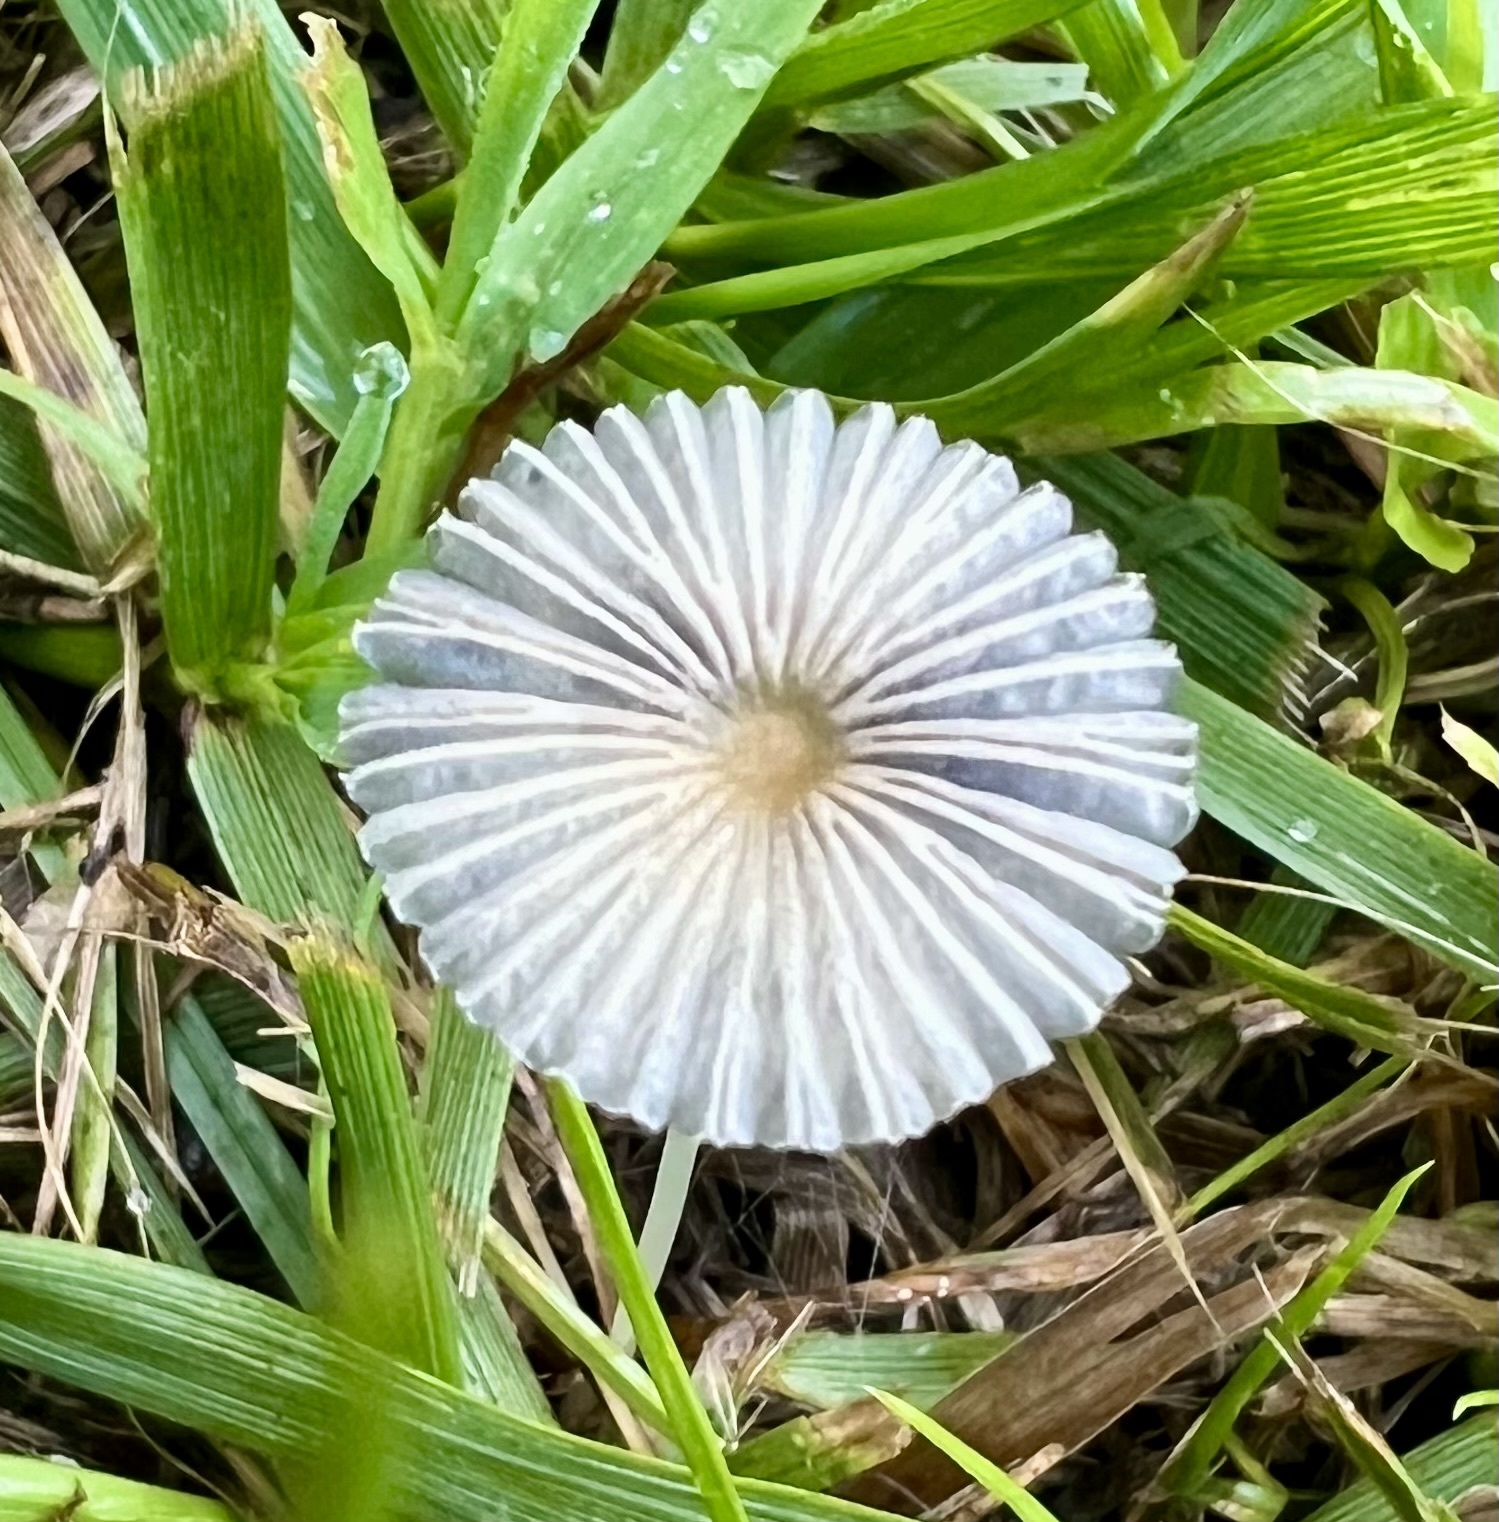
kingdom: Fungi
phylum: Basidiomycota
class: Agaricomycetes
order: Agaricales
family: Psathyrellaceae
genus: Parasola
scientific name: Parasola plicatilis
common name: Pleated inkcap
